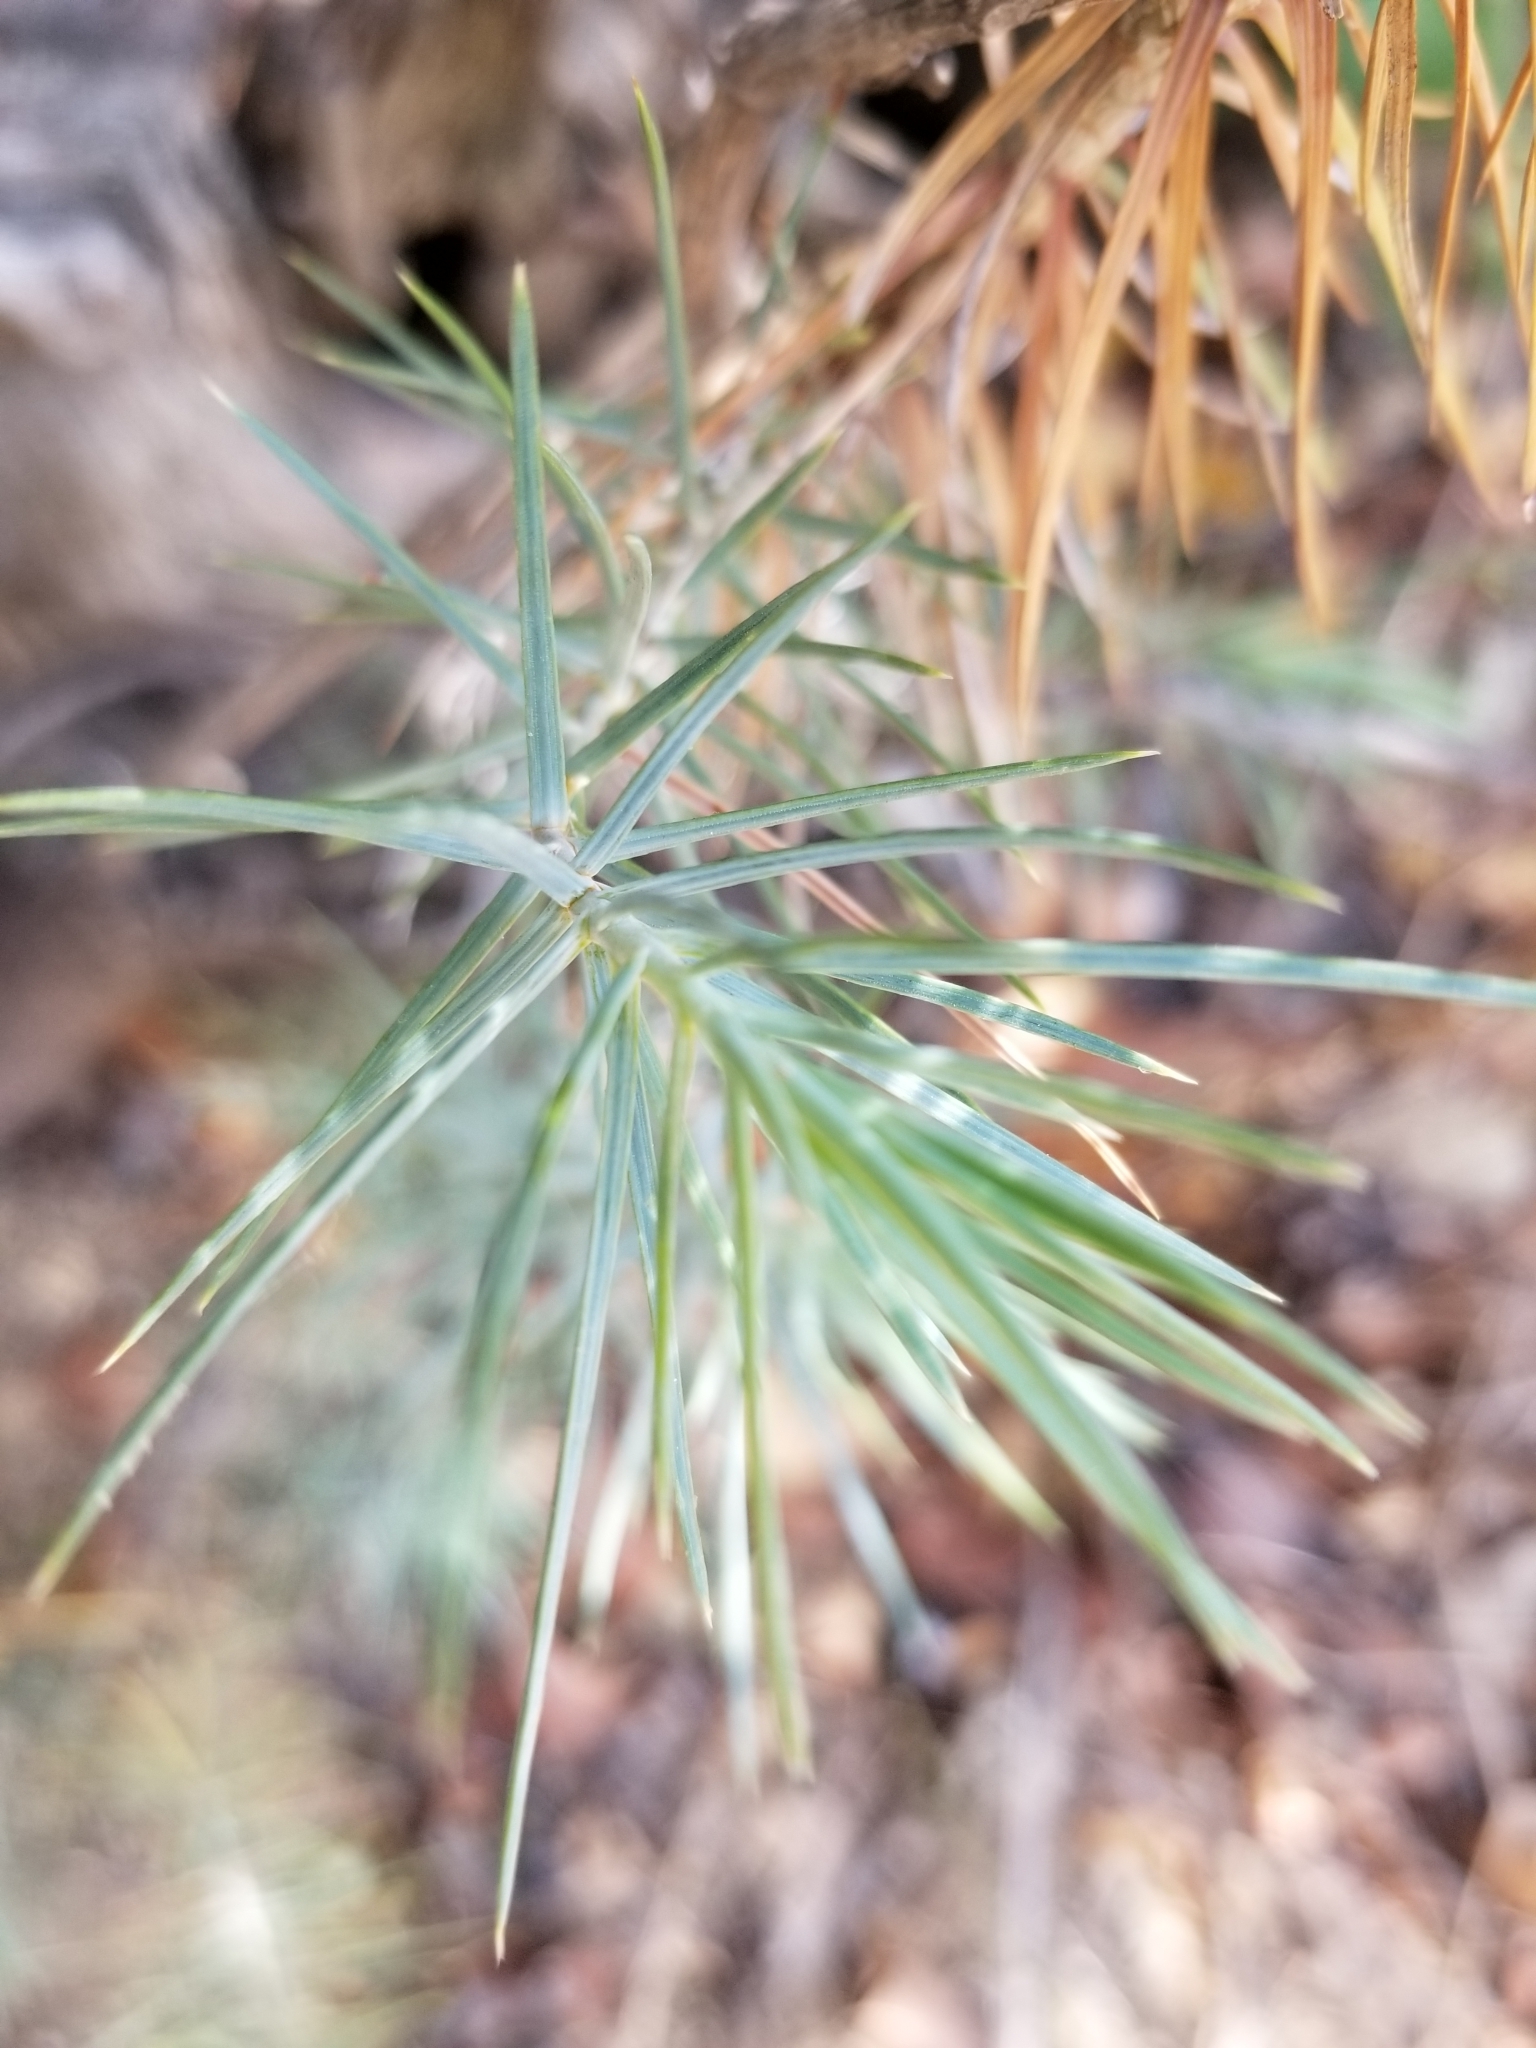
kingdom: Plantae
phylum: Tracheophyta
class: Pinopsida
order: Pinales
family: Pinaceae
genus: Pinus
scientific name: Pinus monophylla
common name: One-leaved nut pine
